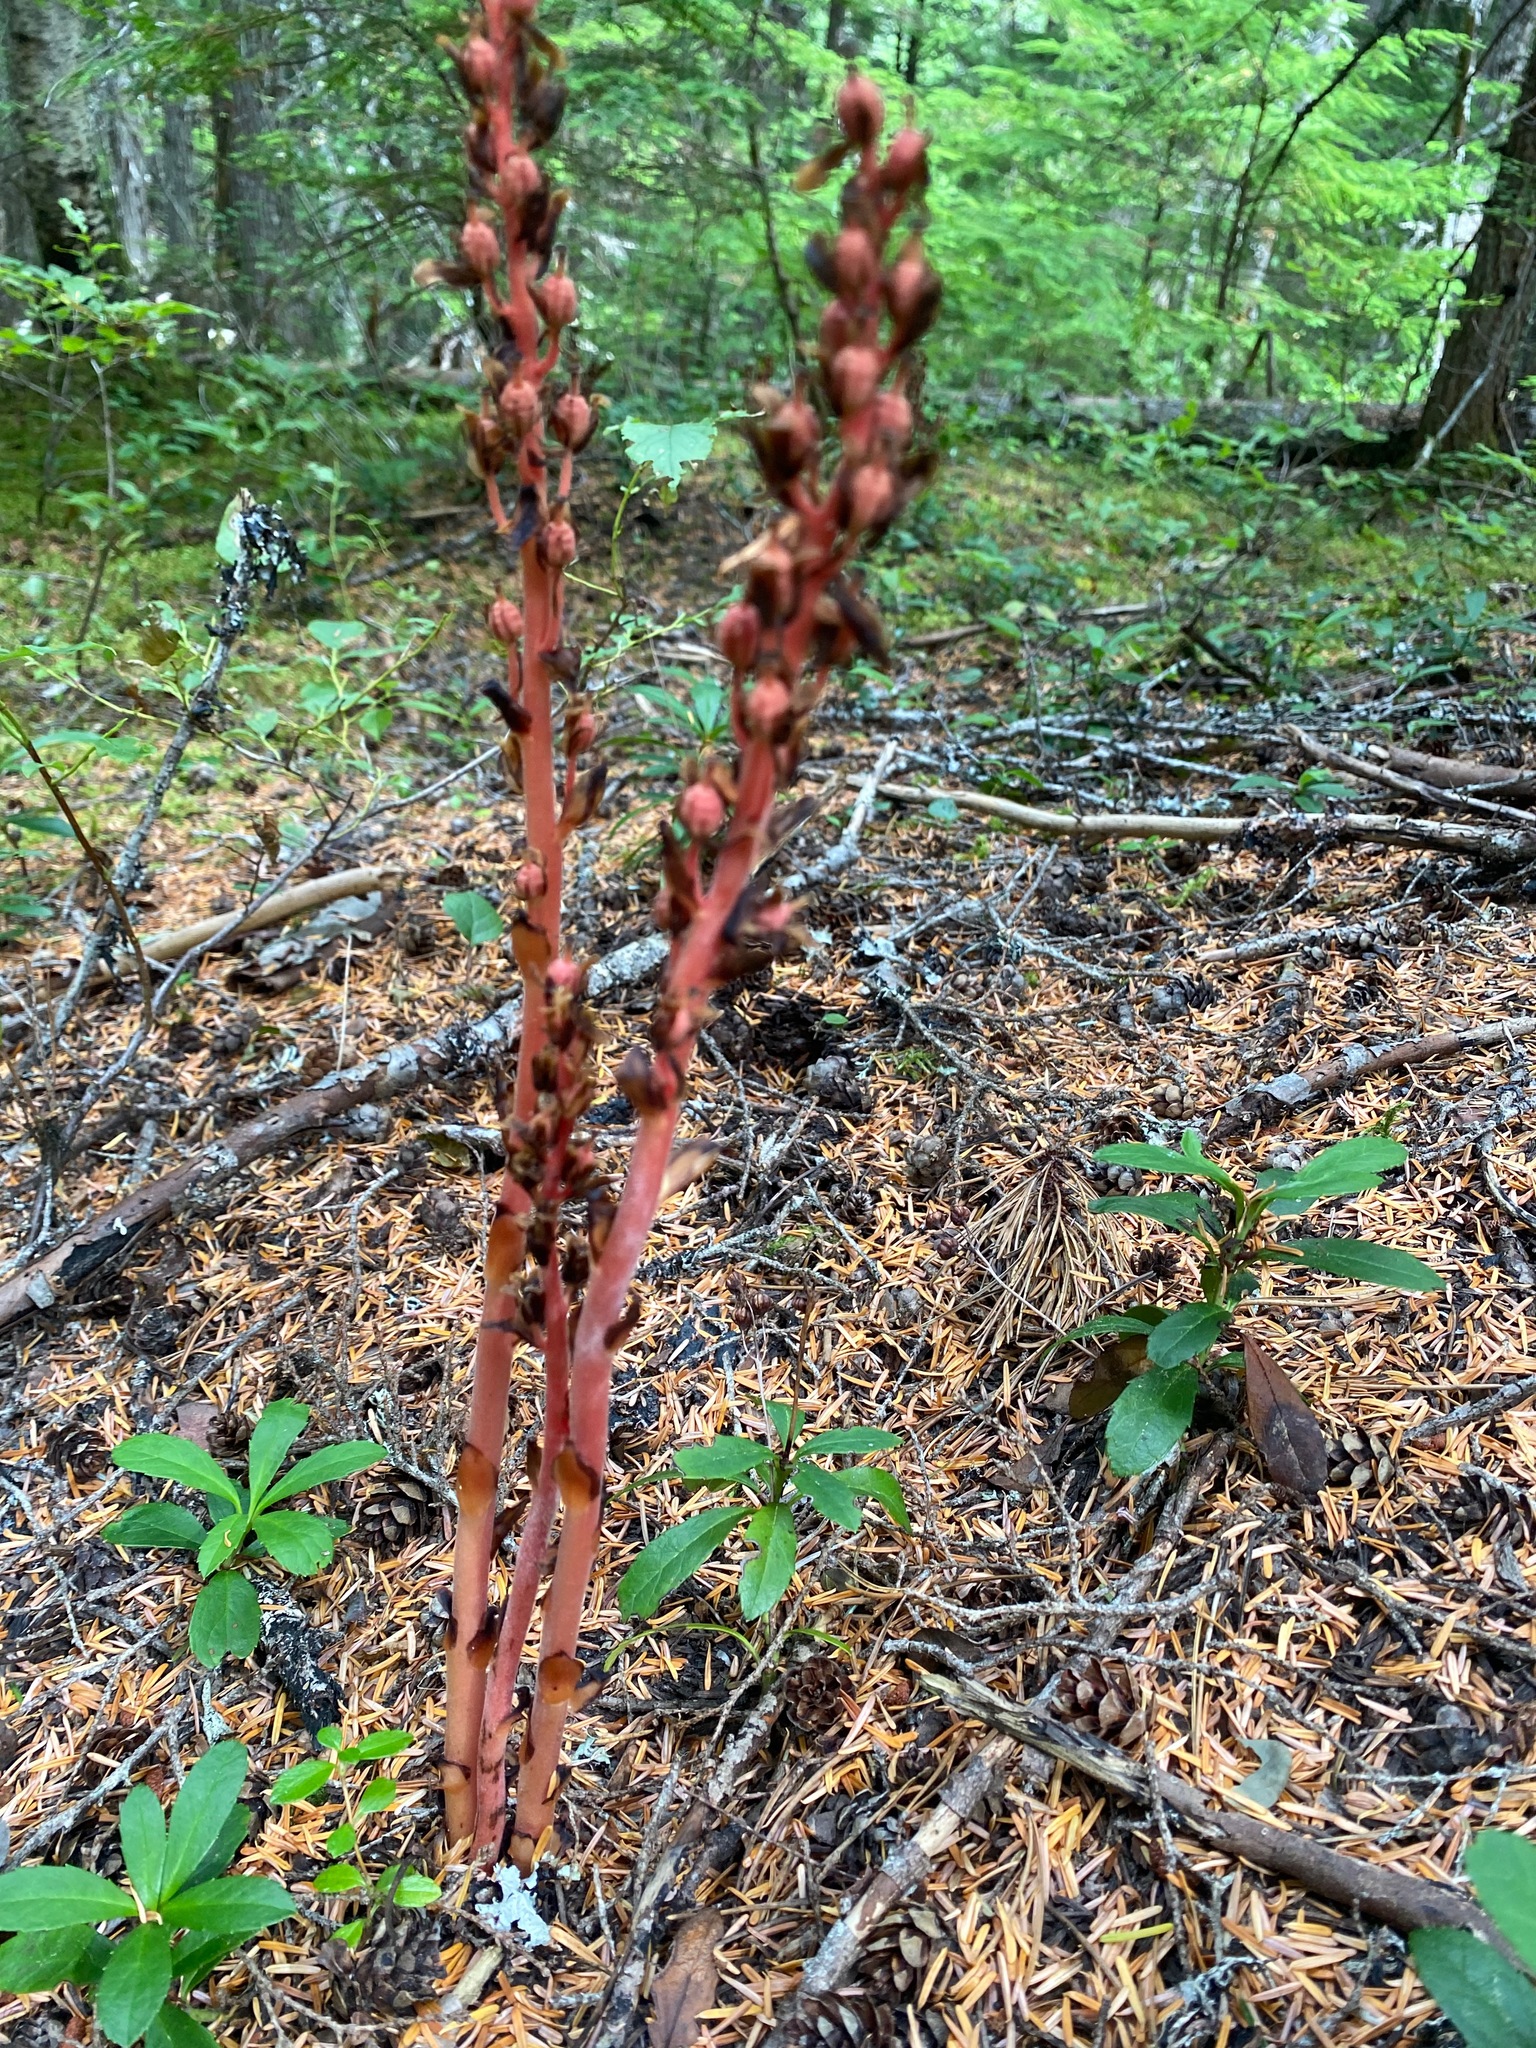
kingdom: Plantae
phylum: Tracheophyta
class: Magnoliopsida
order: Ericales
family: Ericaceae
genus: Hypopitys
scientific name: Hypopitys monotropa
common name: Yellow bird's-nest
